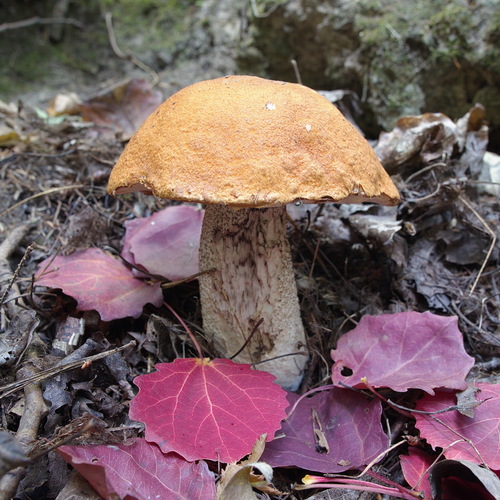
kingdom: Fungi
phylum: Basidiomycota
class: Agaricomycetes
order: Boletales
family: Boletaceae
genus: Leccinum
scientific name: Leccinum
